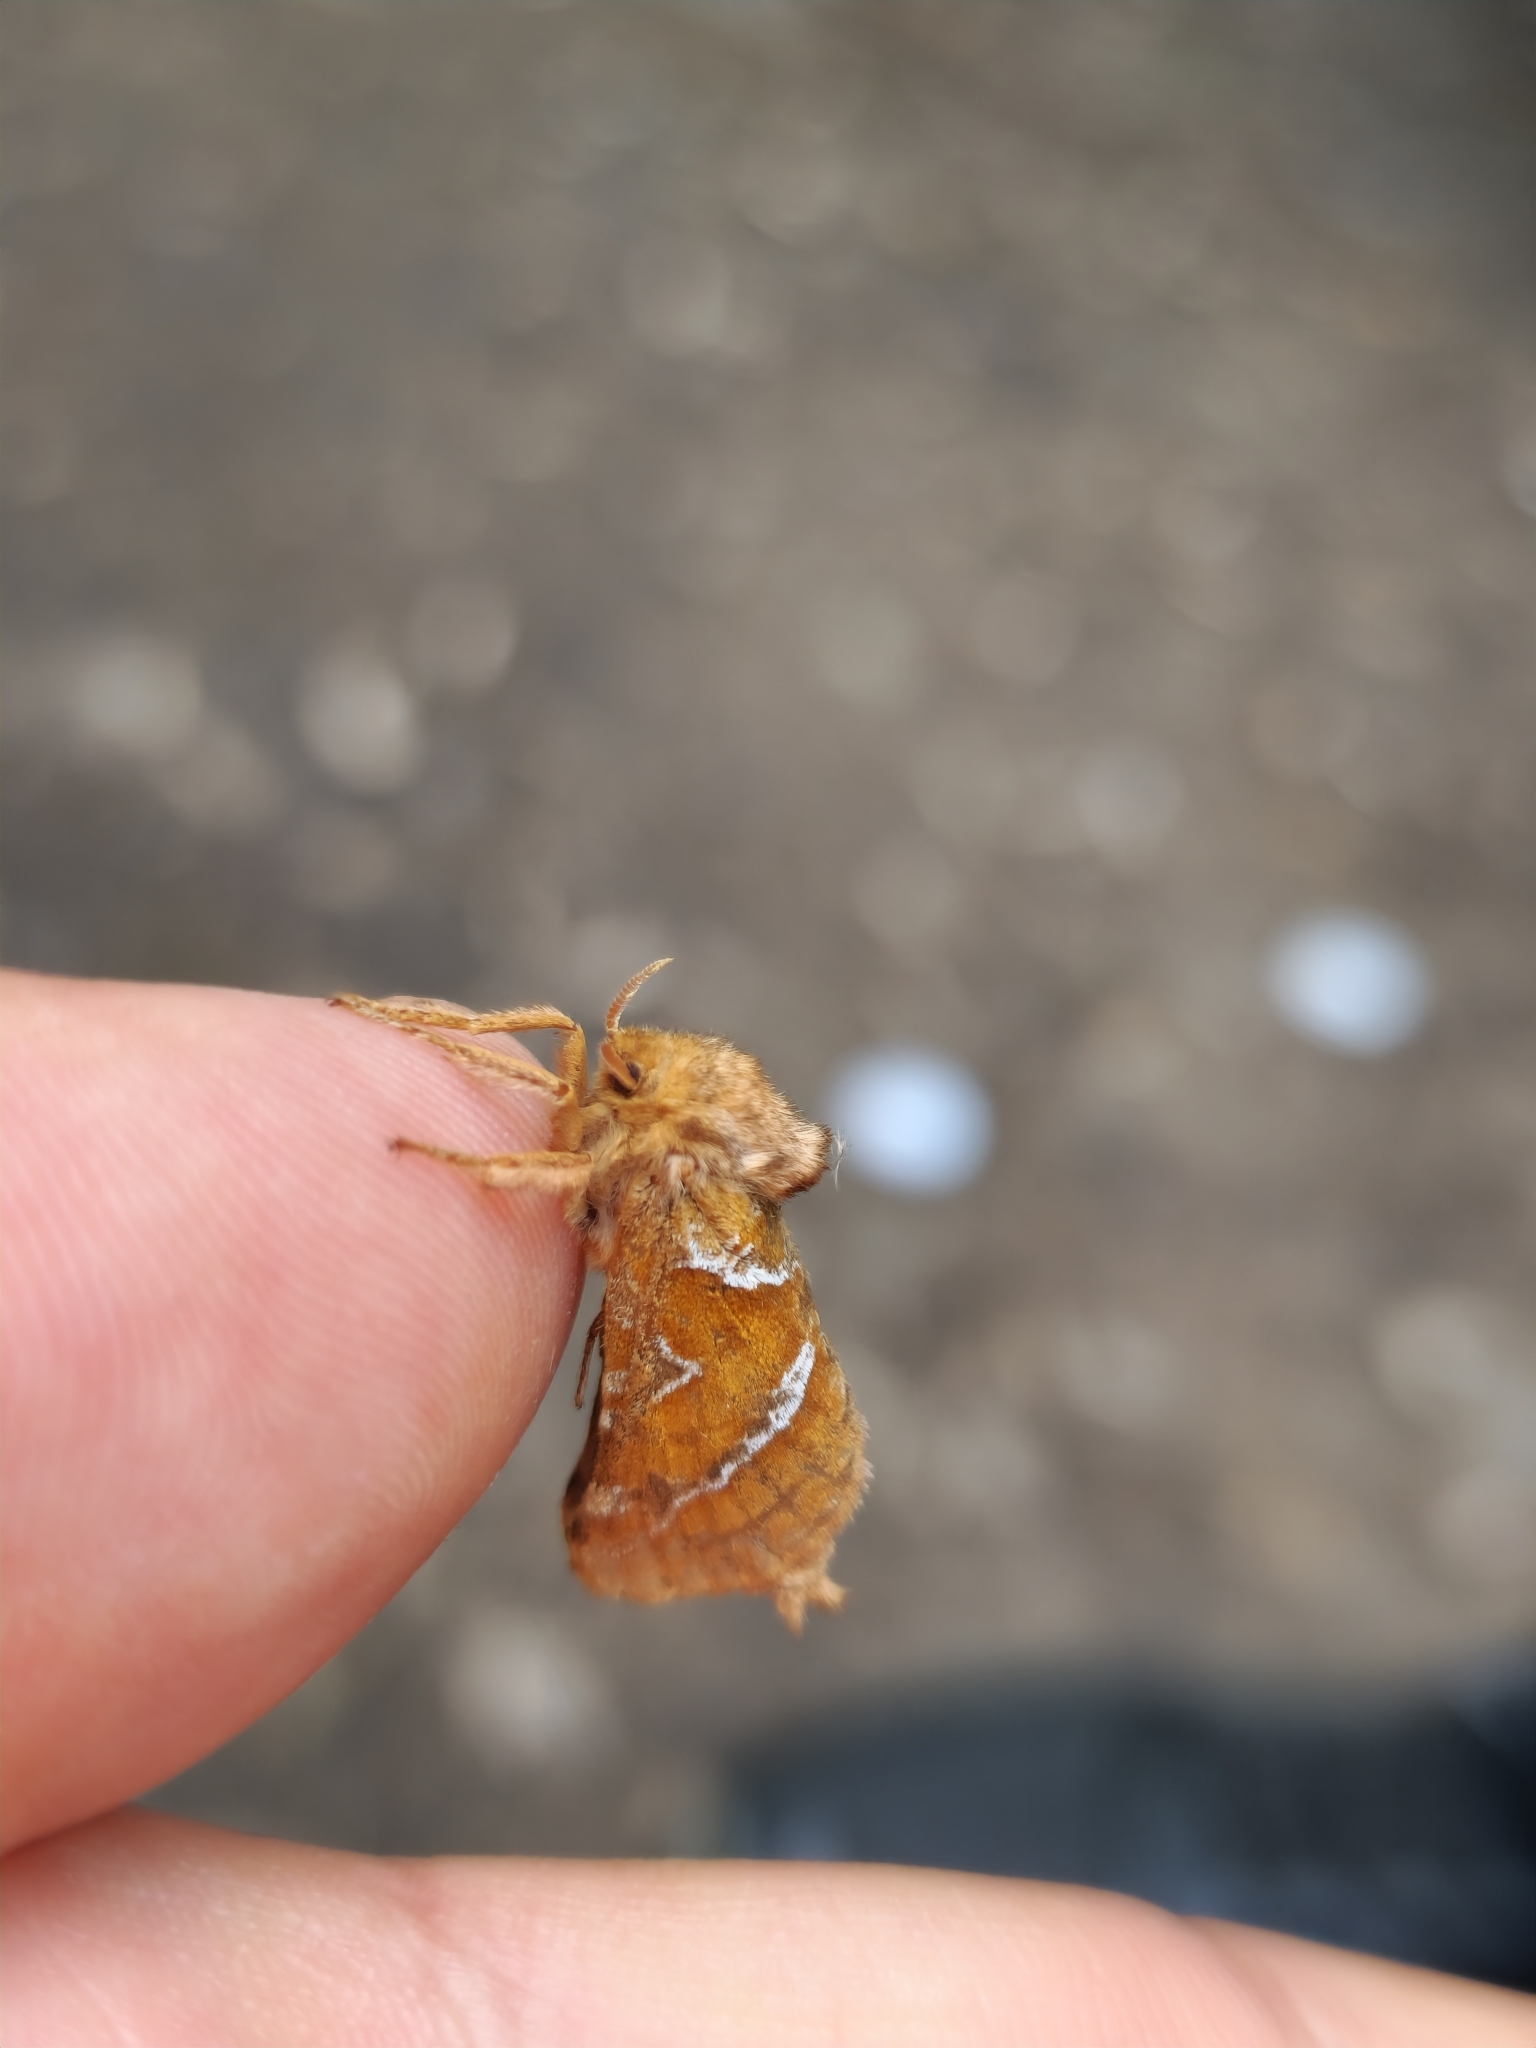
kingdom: Animalia
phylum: Arthropoda
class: Insecta
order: Lepidoptera
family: Hepialidae
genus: Triodia
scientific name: Triodia sylvina
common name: Orange swift
